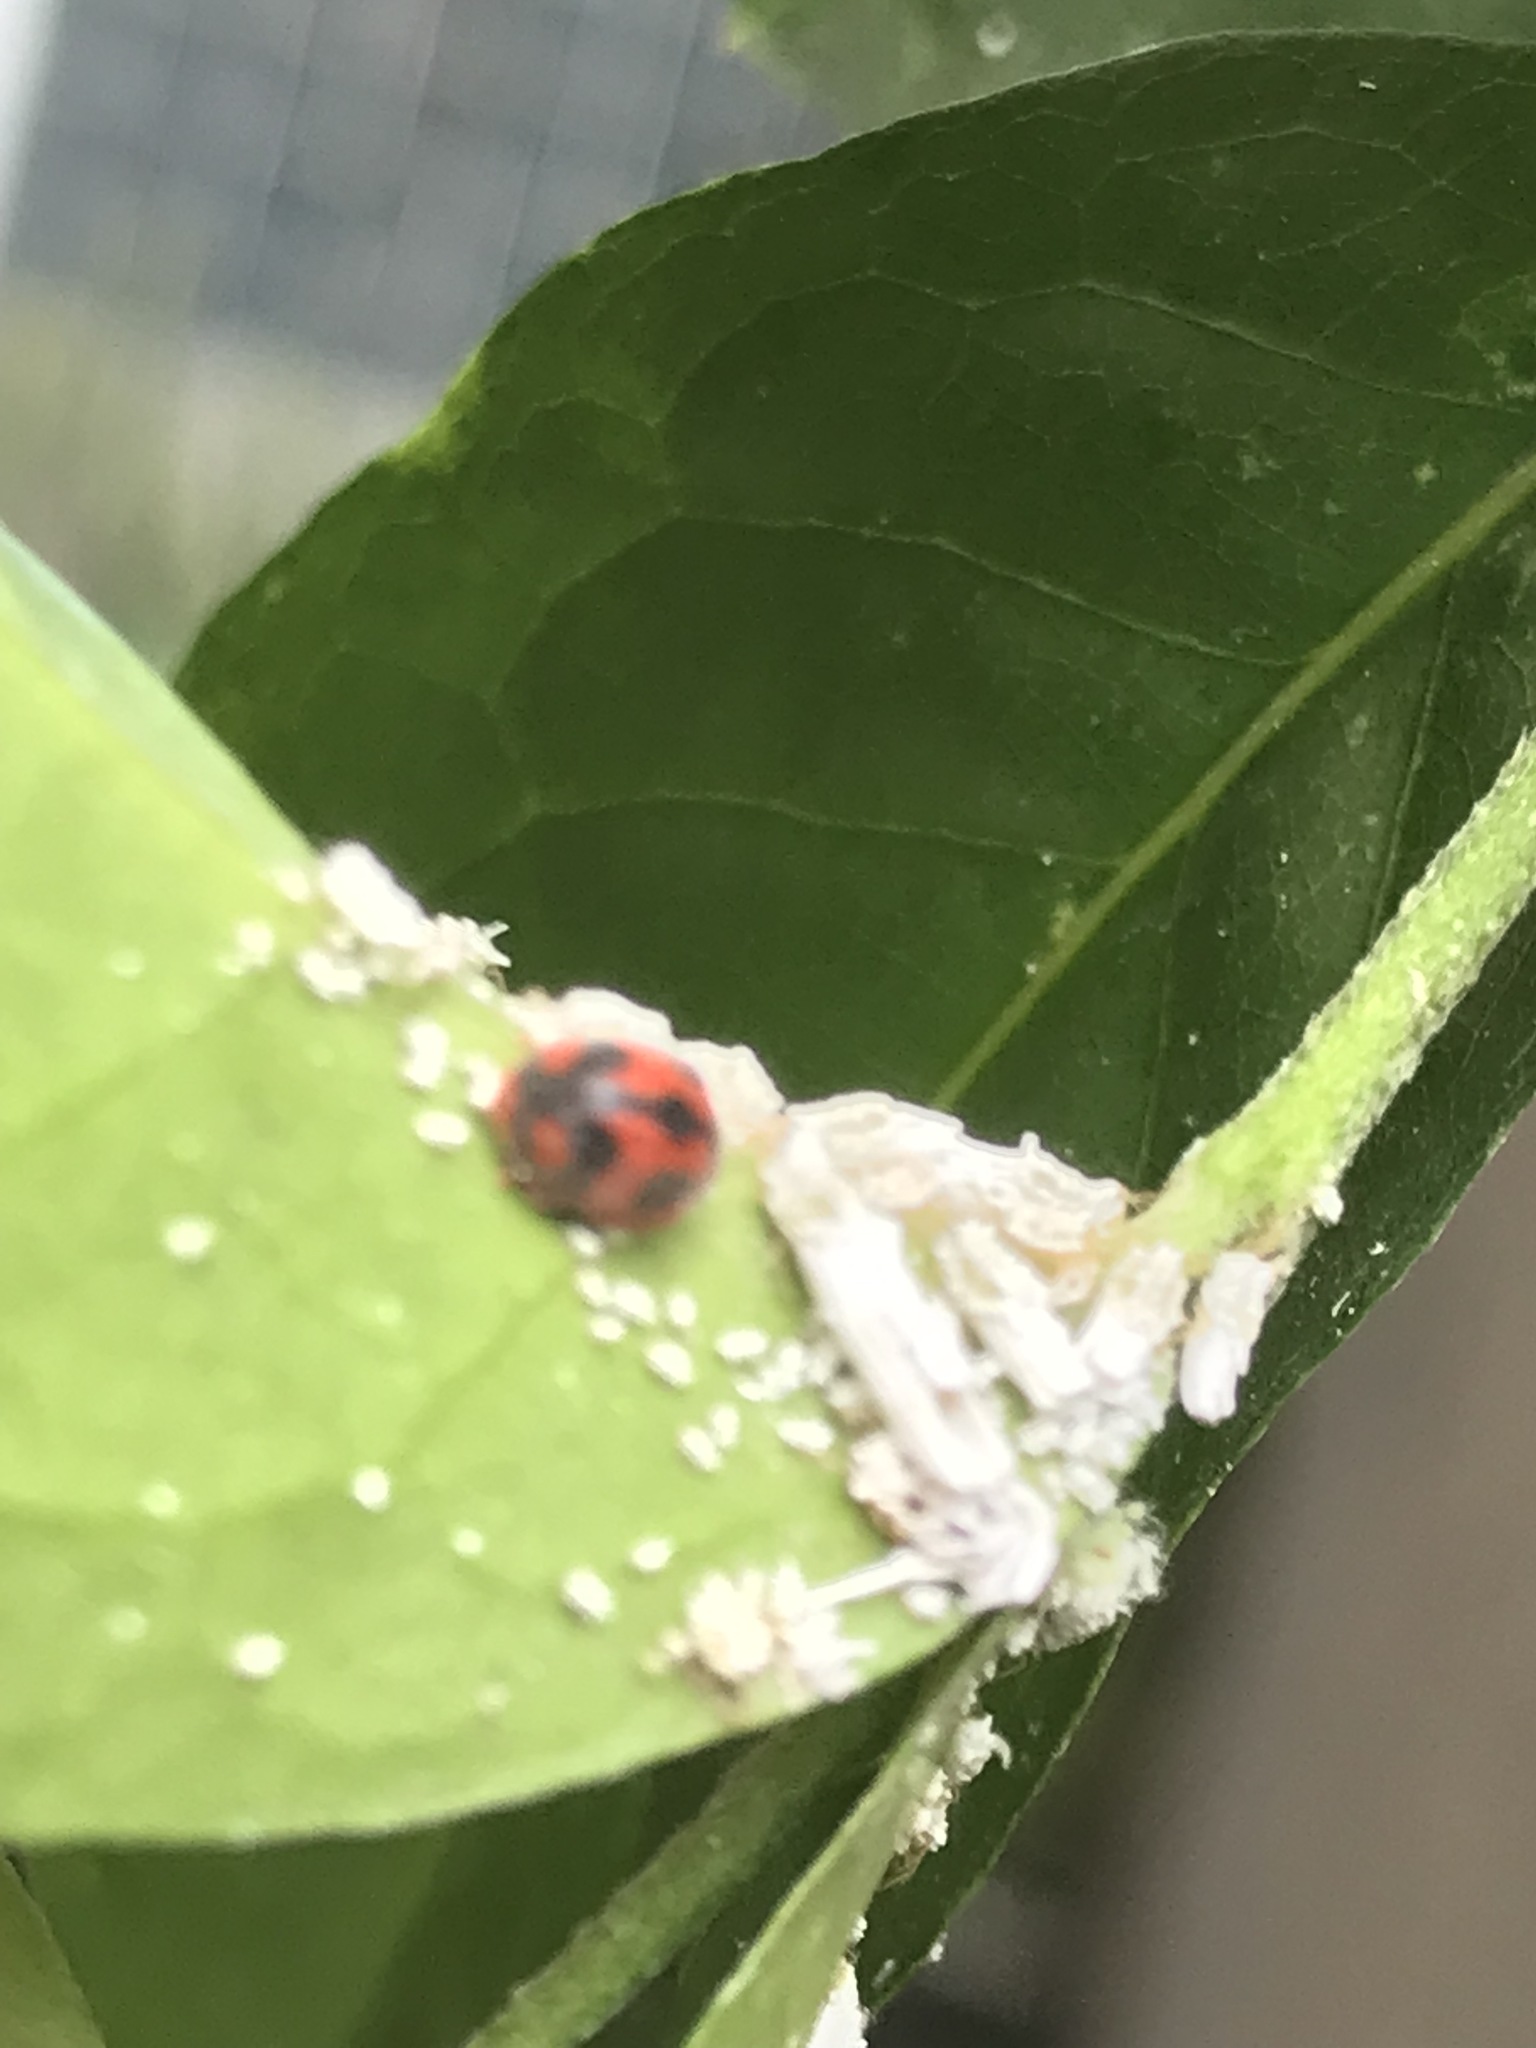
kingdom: Animalia
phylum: Arthropoda
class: Insecta
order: Coleoptera
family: Coccinellidae
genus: Novius
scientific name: Novius cardinalis
